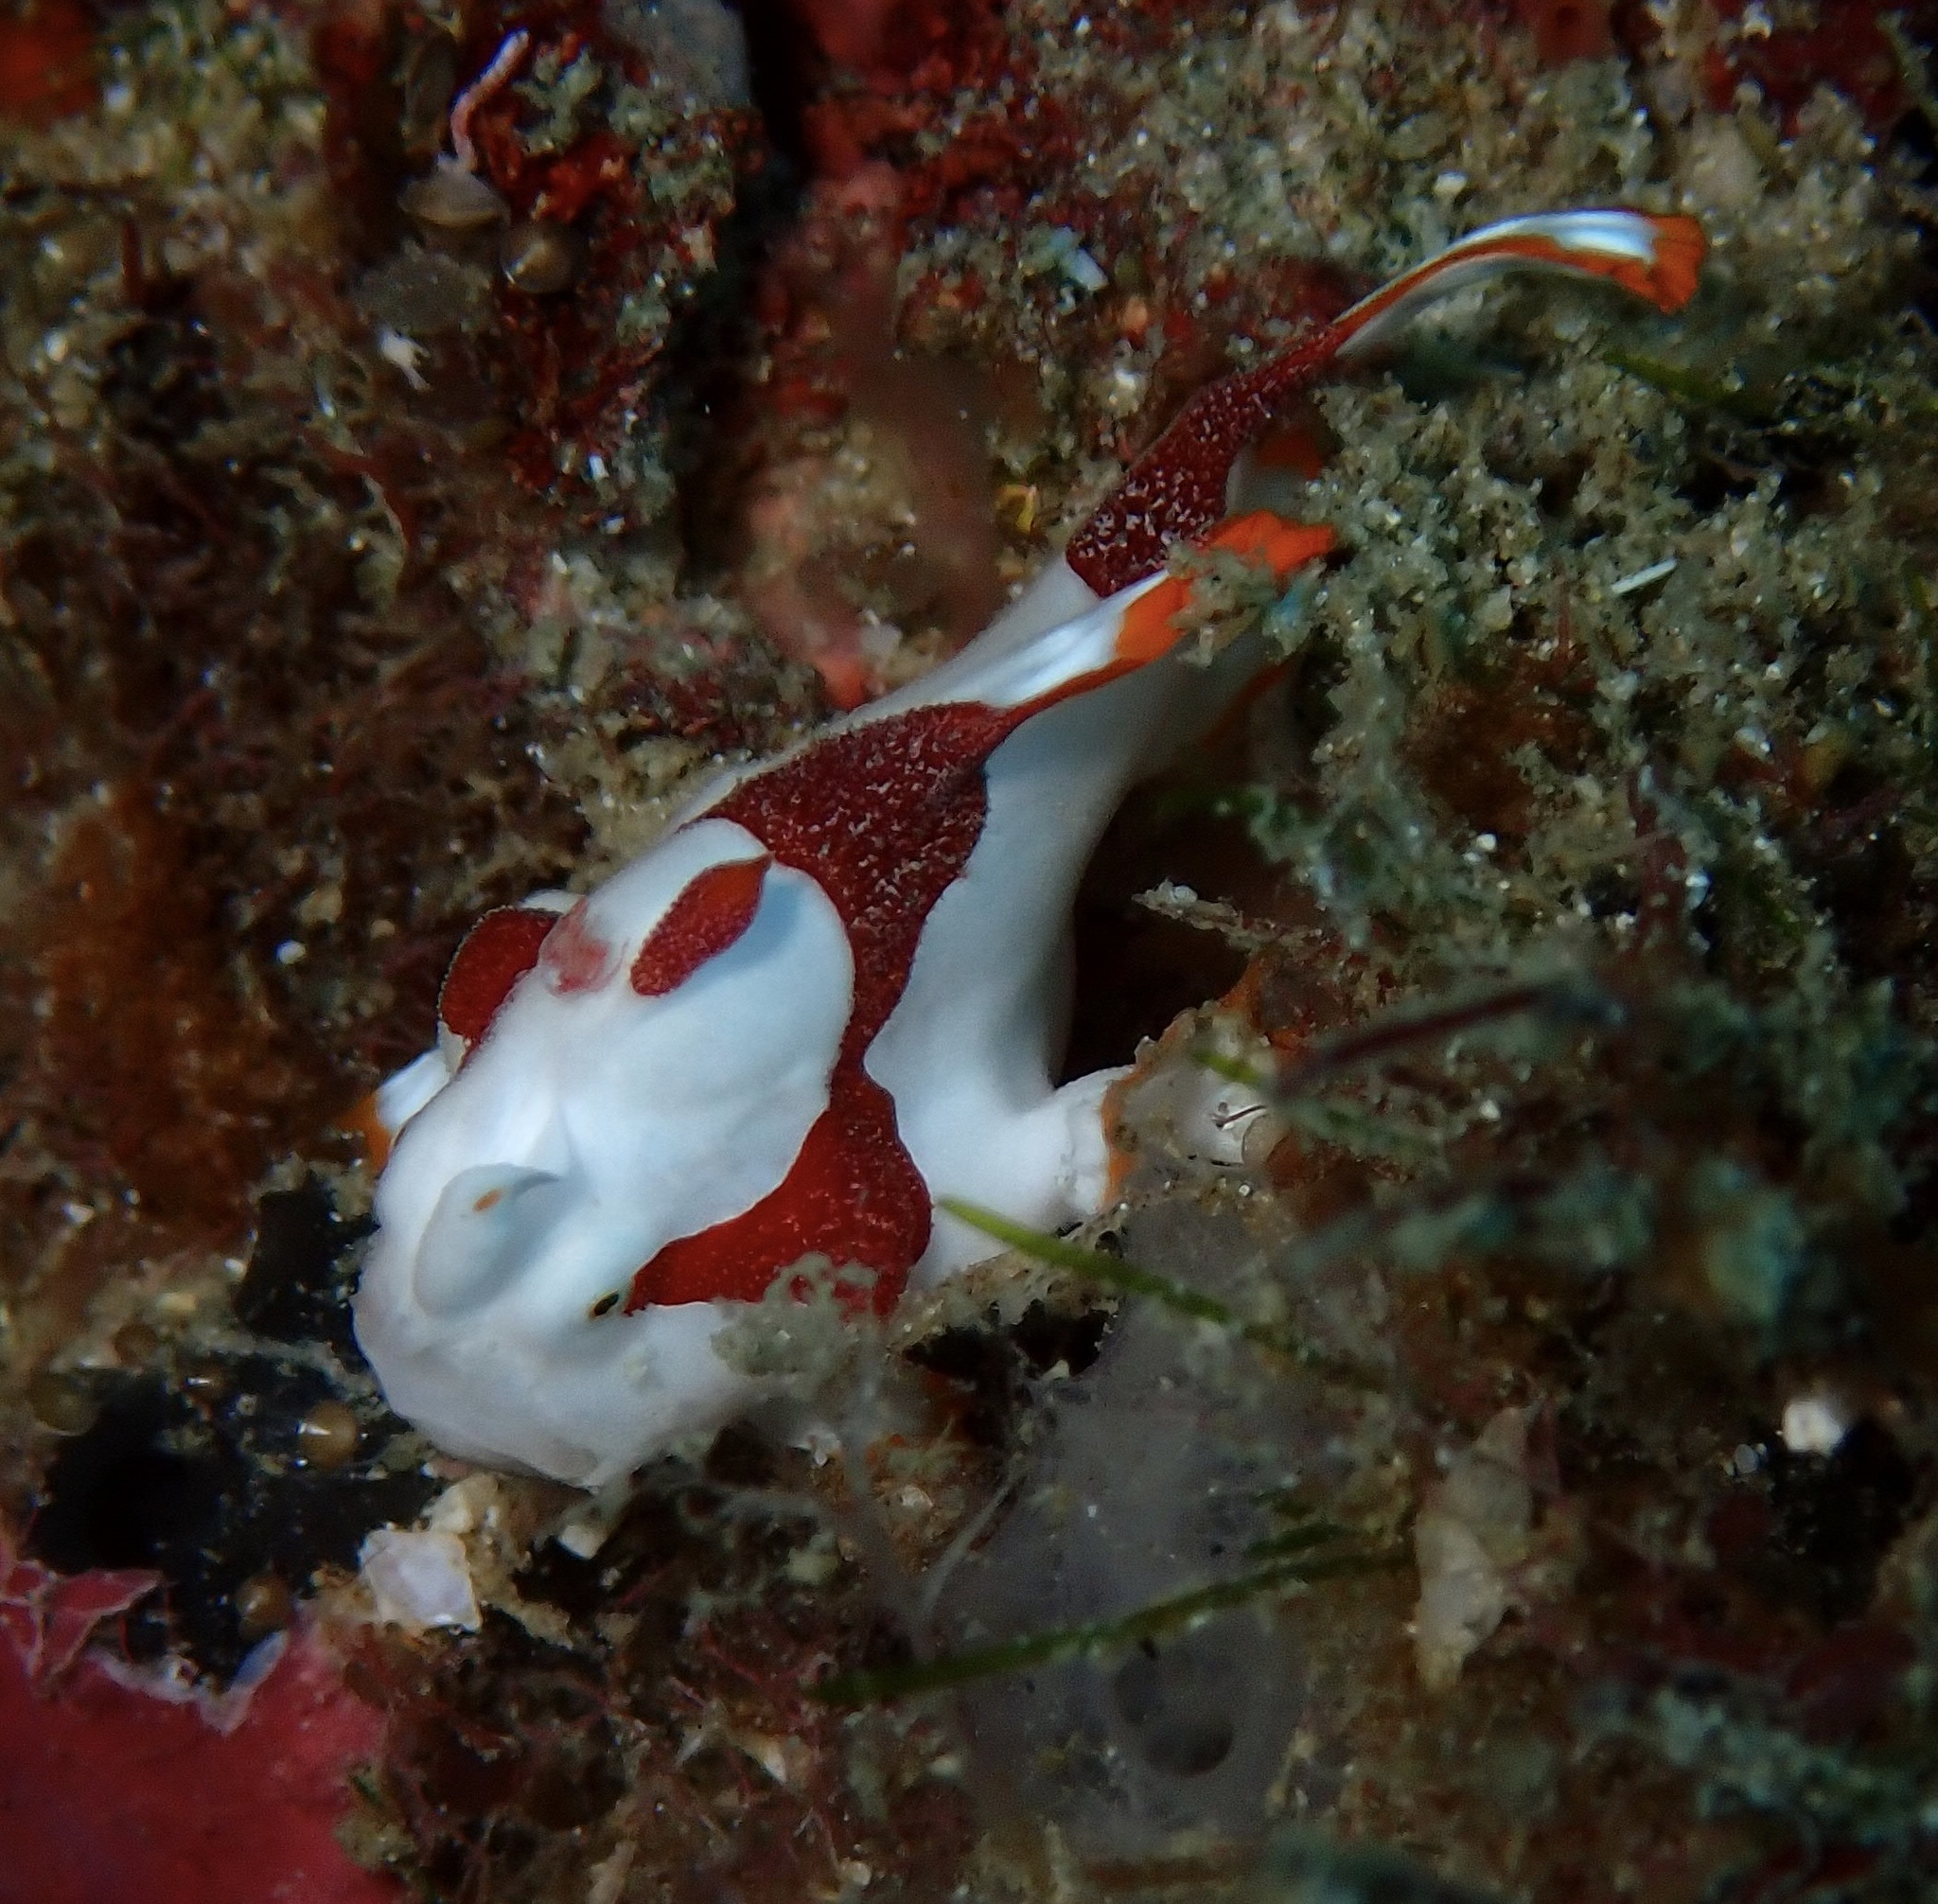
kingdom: Animalia
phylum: Chordata
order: Lophiiformes
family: Antennariidae
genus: Antennarius
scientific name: Antennarius maculatus
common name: Warty frogfish
